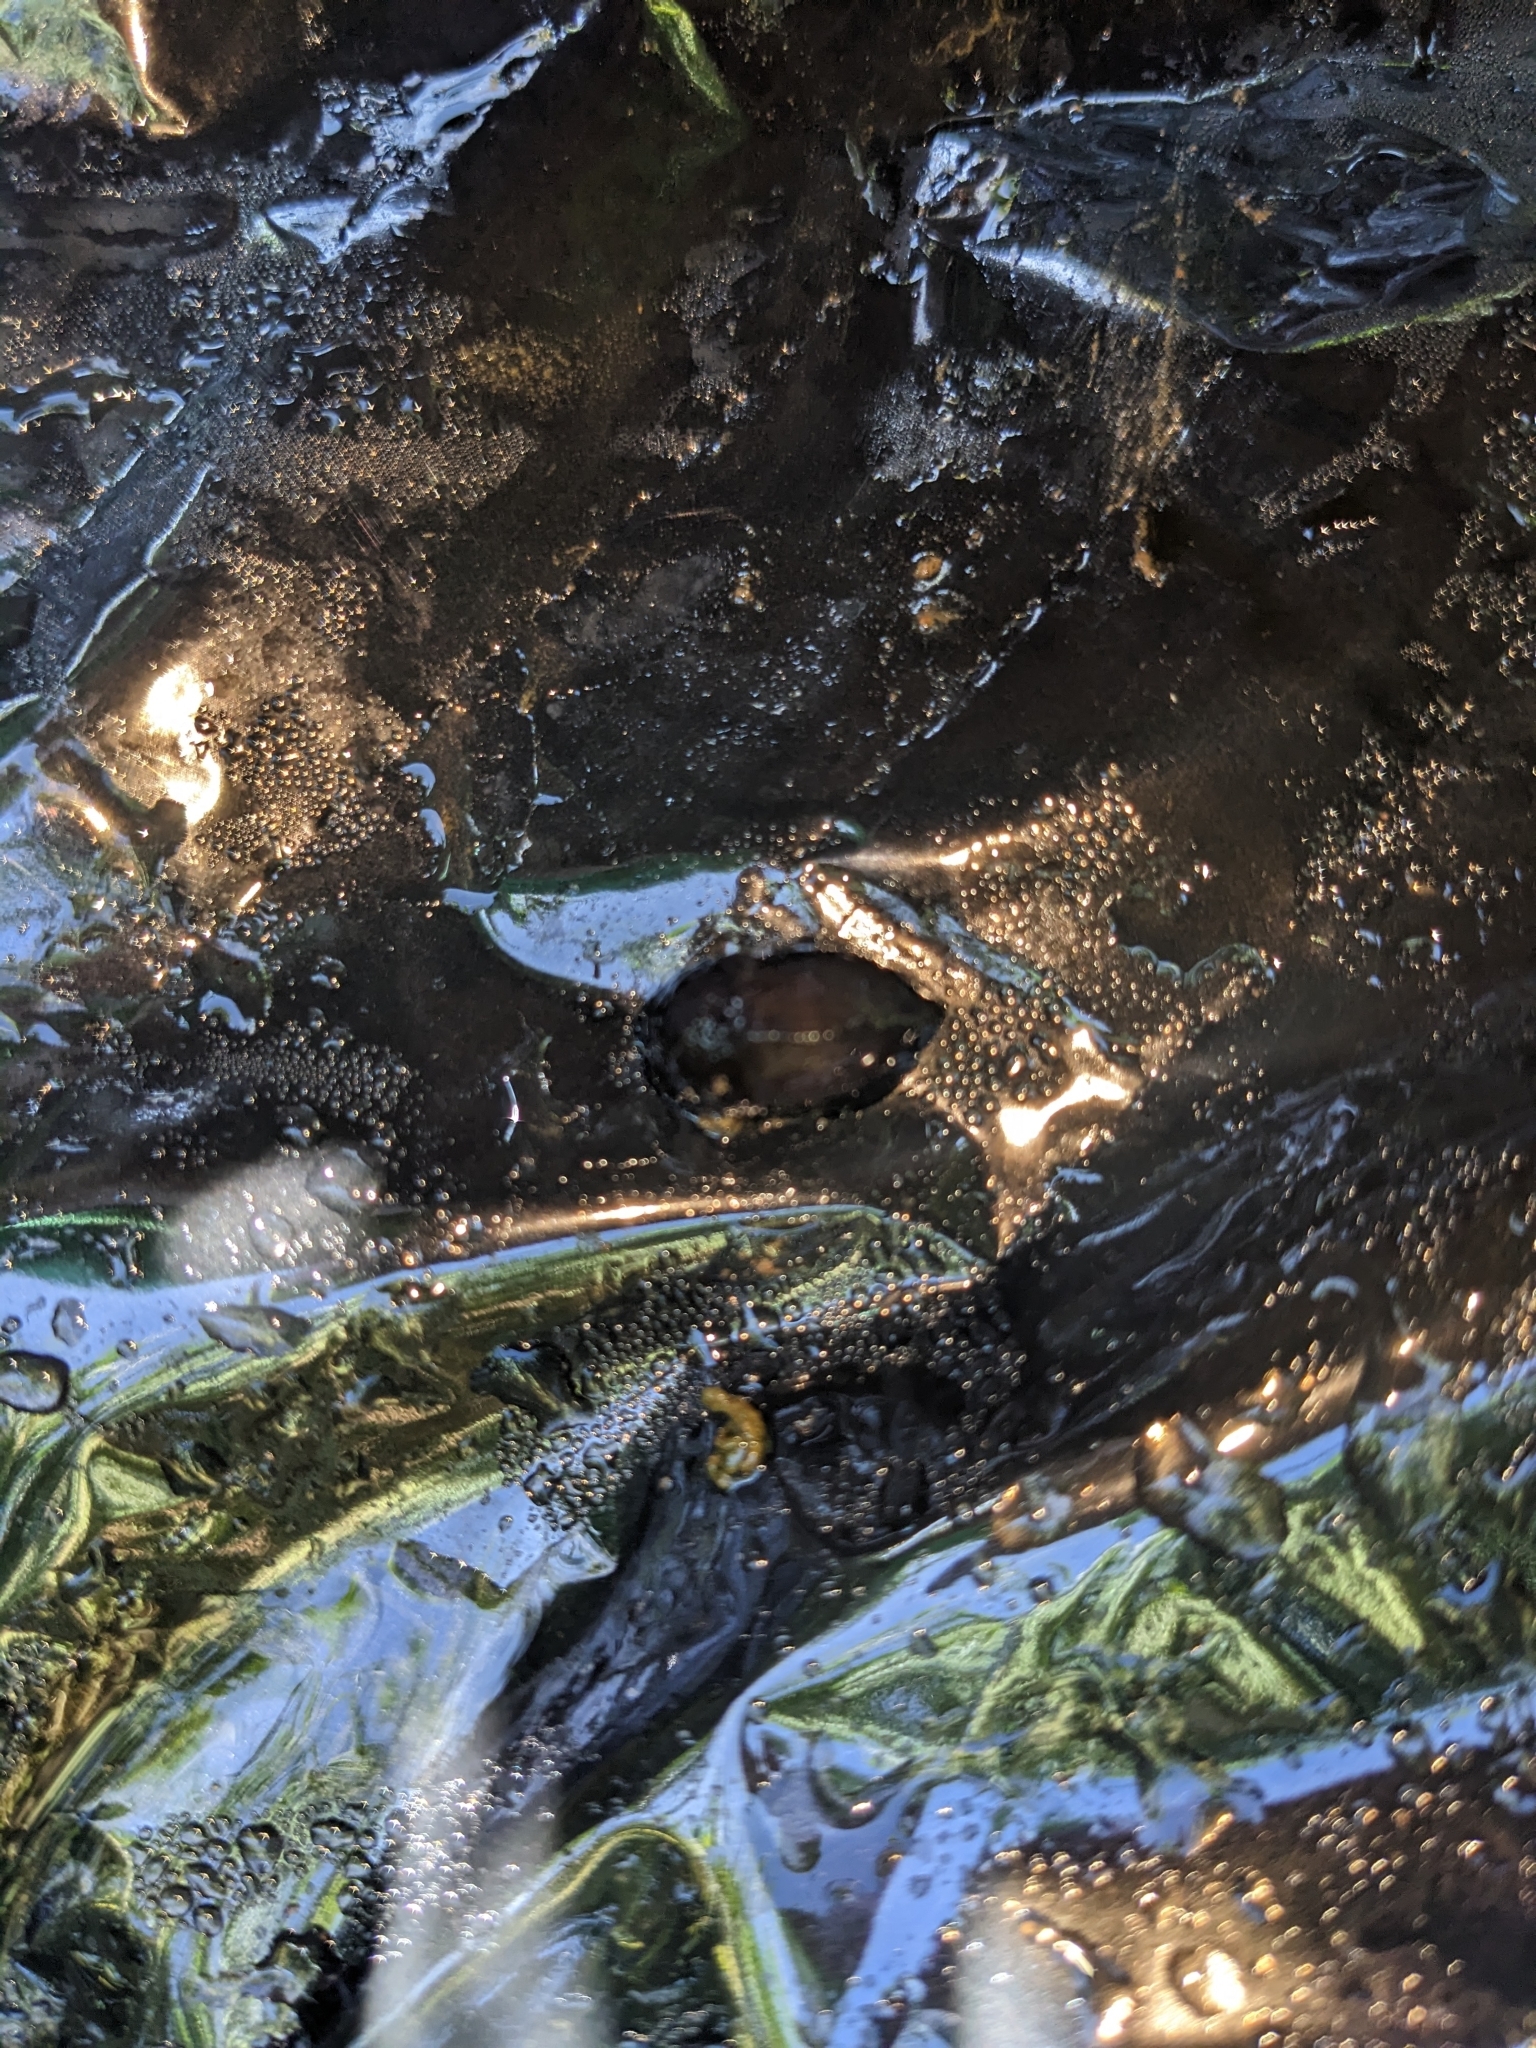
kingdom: Animalia
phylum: Mollusca
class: Gastropoda
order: Stylommatophora
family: Milacidae
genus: Milax
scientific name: Milax gagates
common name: Greenhouse slug
